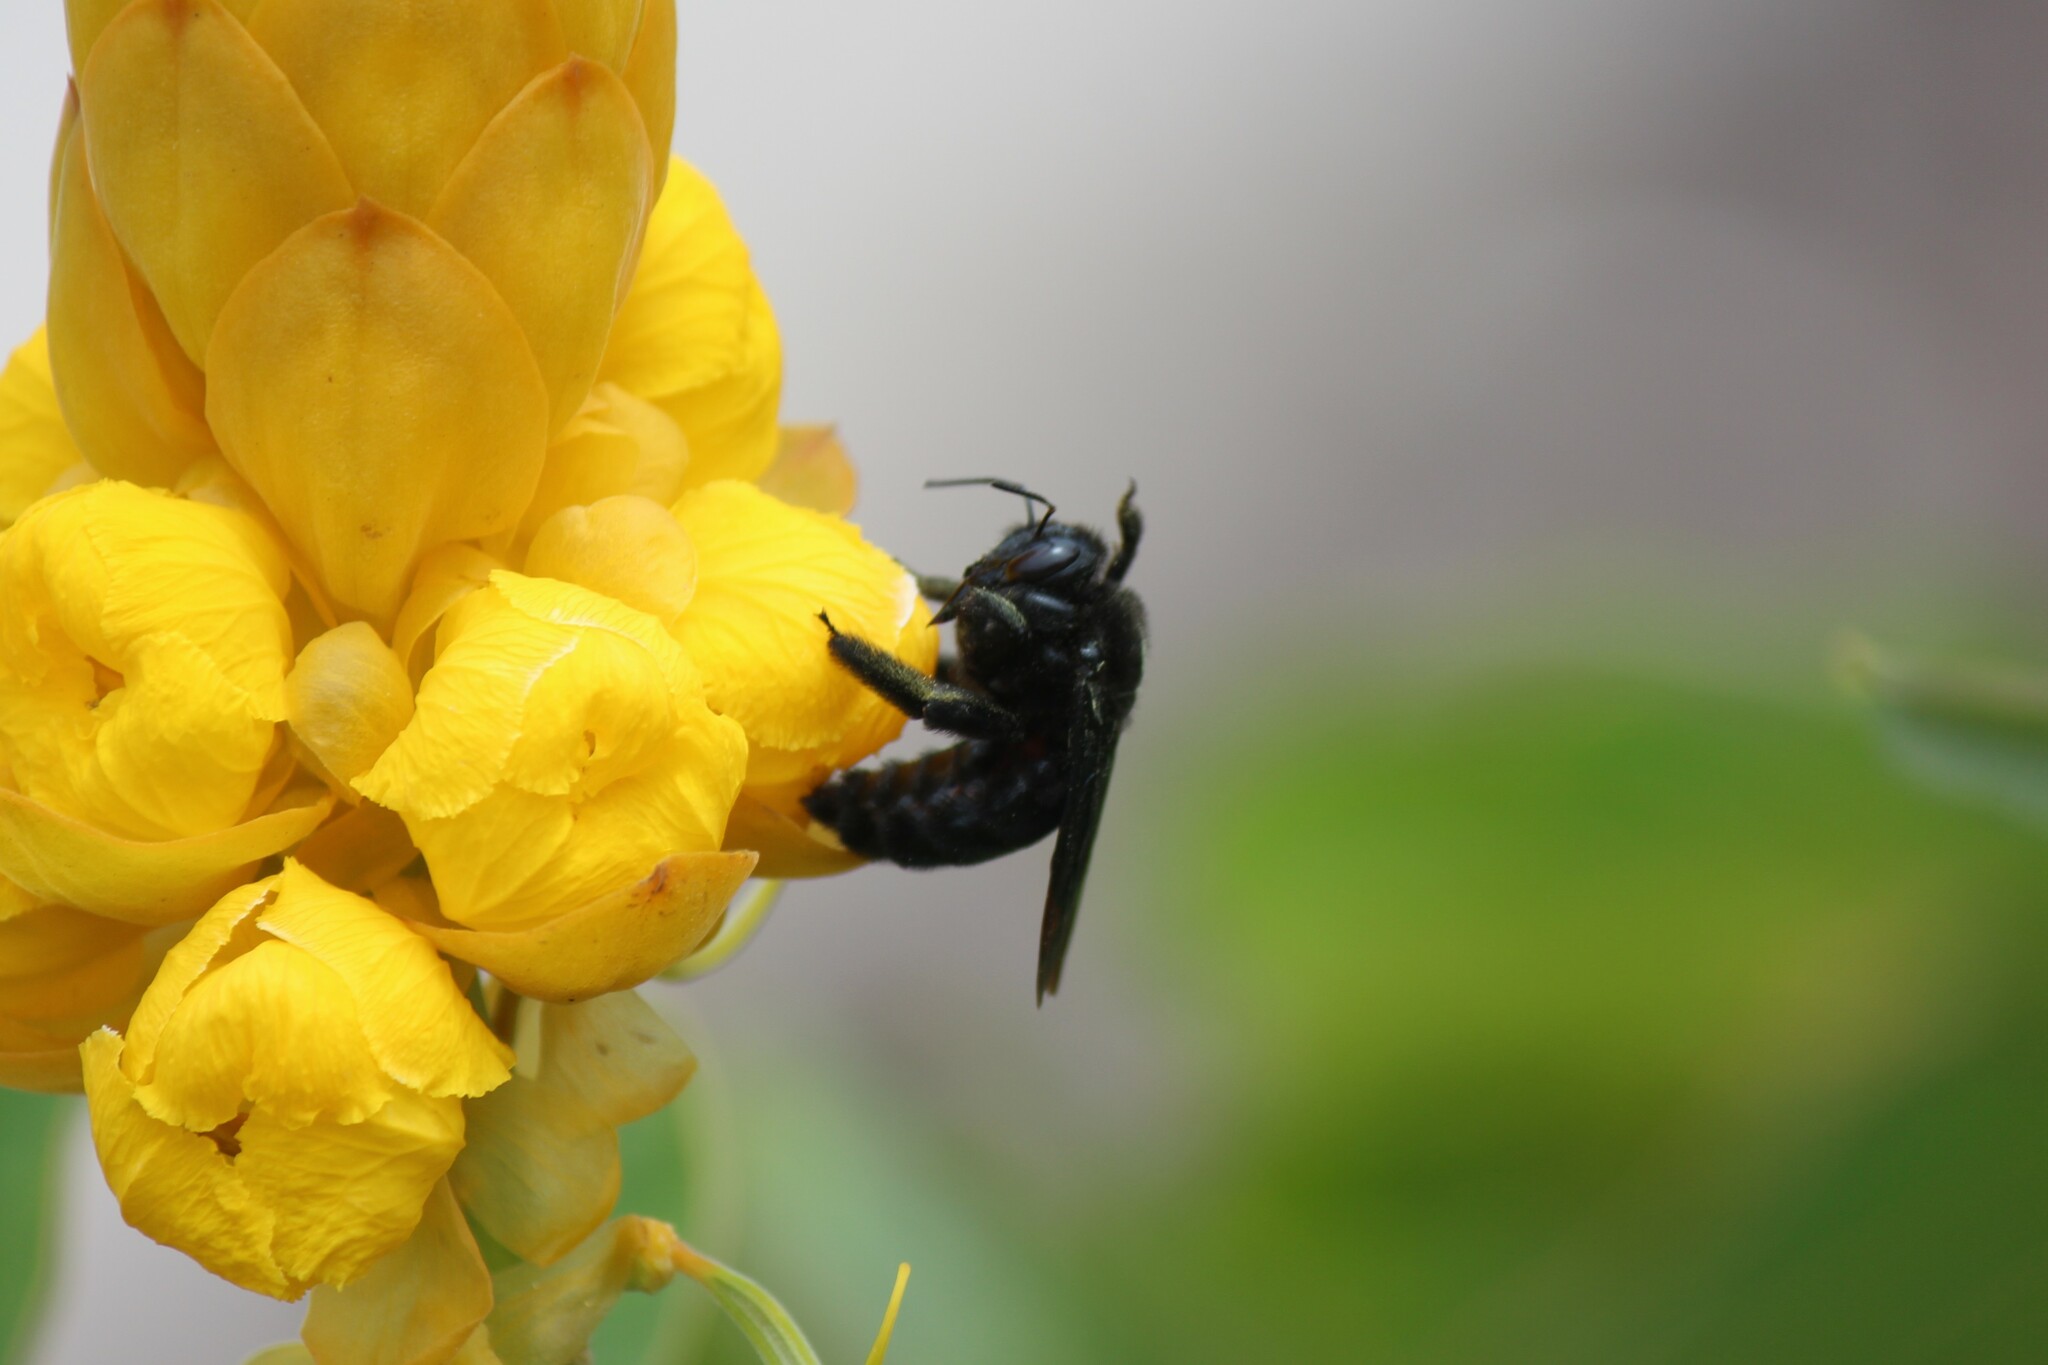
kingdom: Animalia
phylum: Arthropoda
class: Insecta
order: Hymenoptera
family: Apidae
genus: Xylocopa
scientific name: Xylocopa darwini
